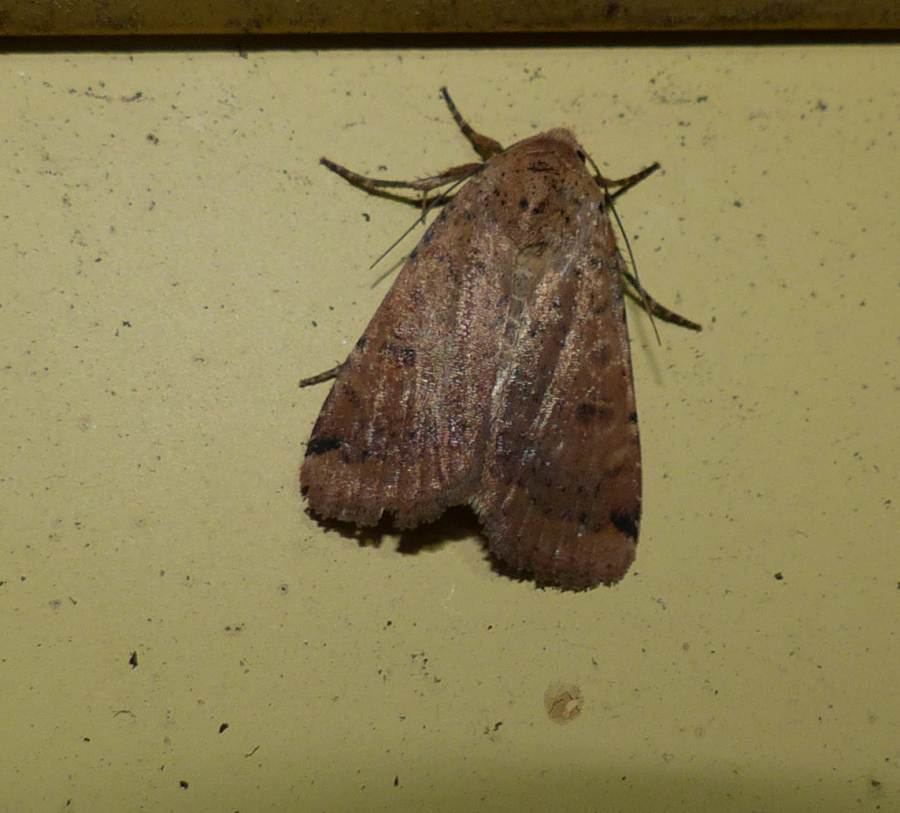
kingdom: Animalia
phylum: Arthropoda
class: Insecta
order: Lepidoptera
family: Noctuidae
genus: Abagrotis
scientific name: Abagrotis cupida
